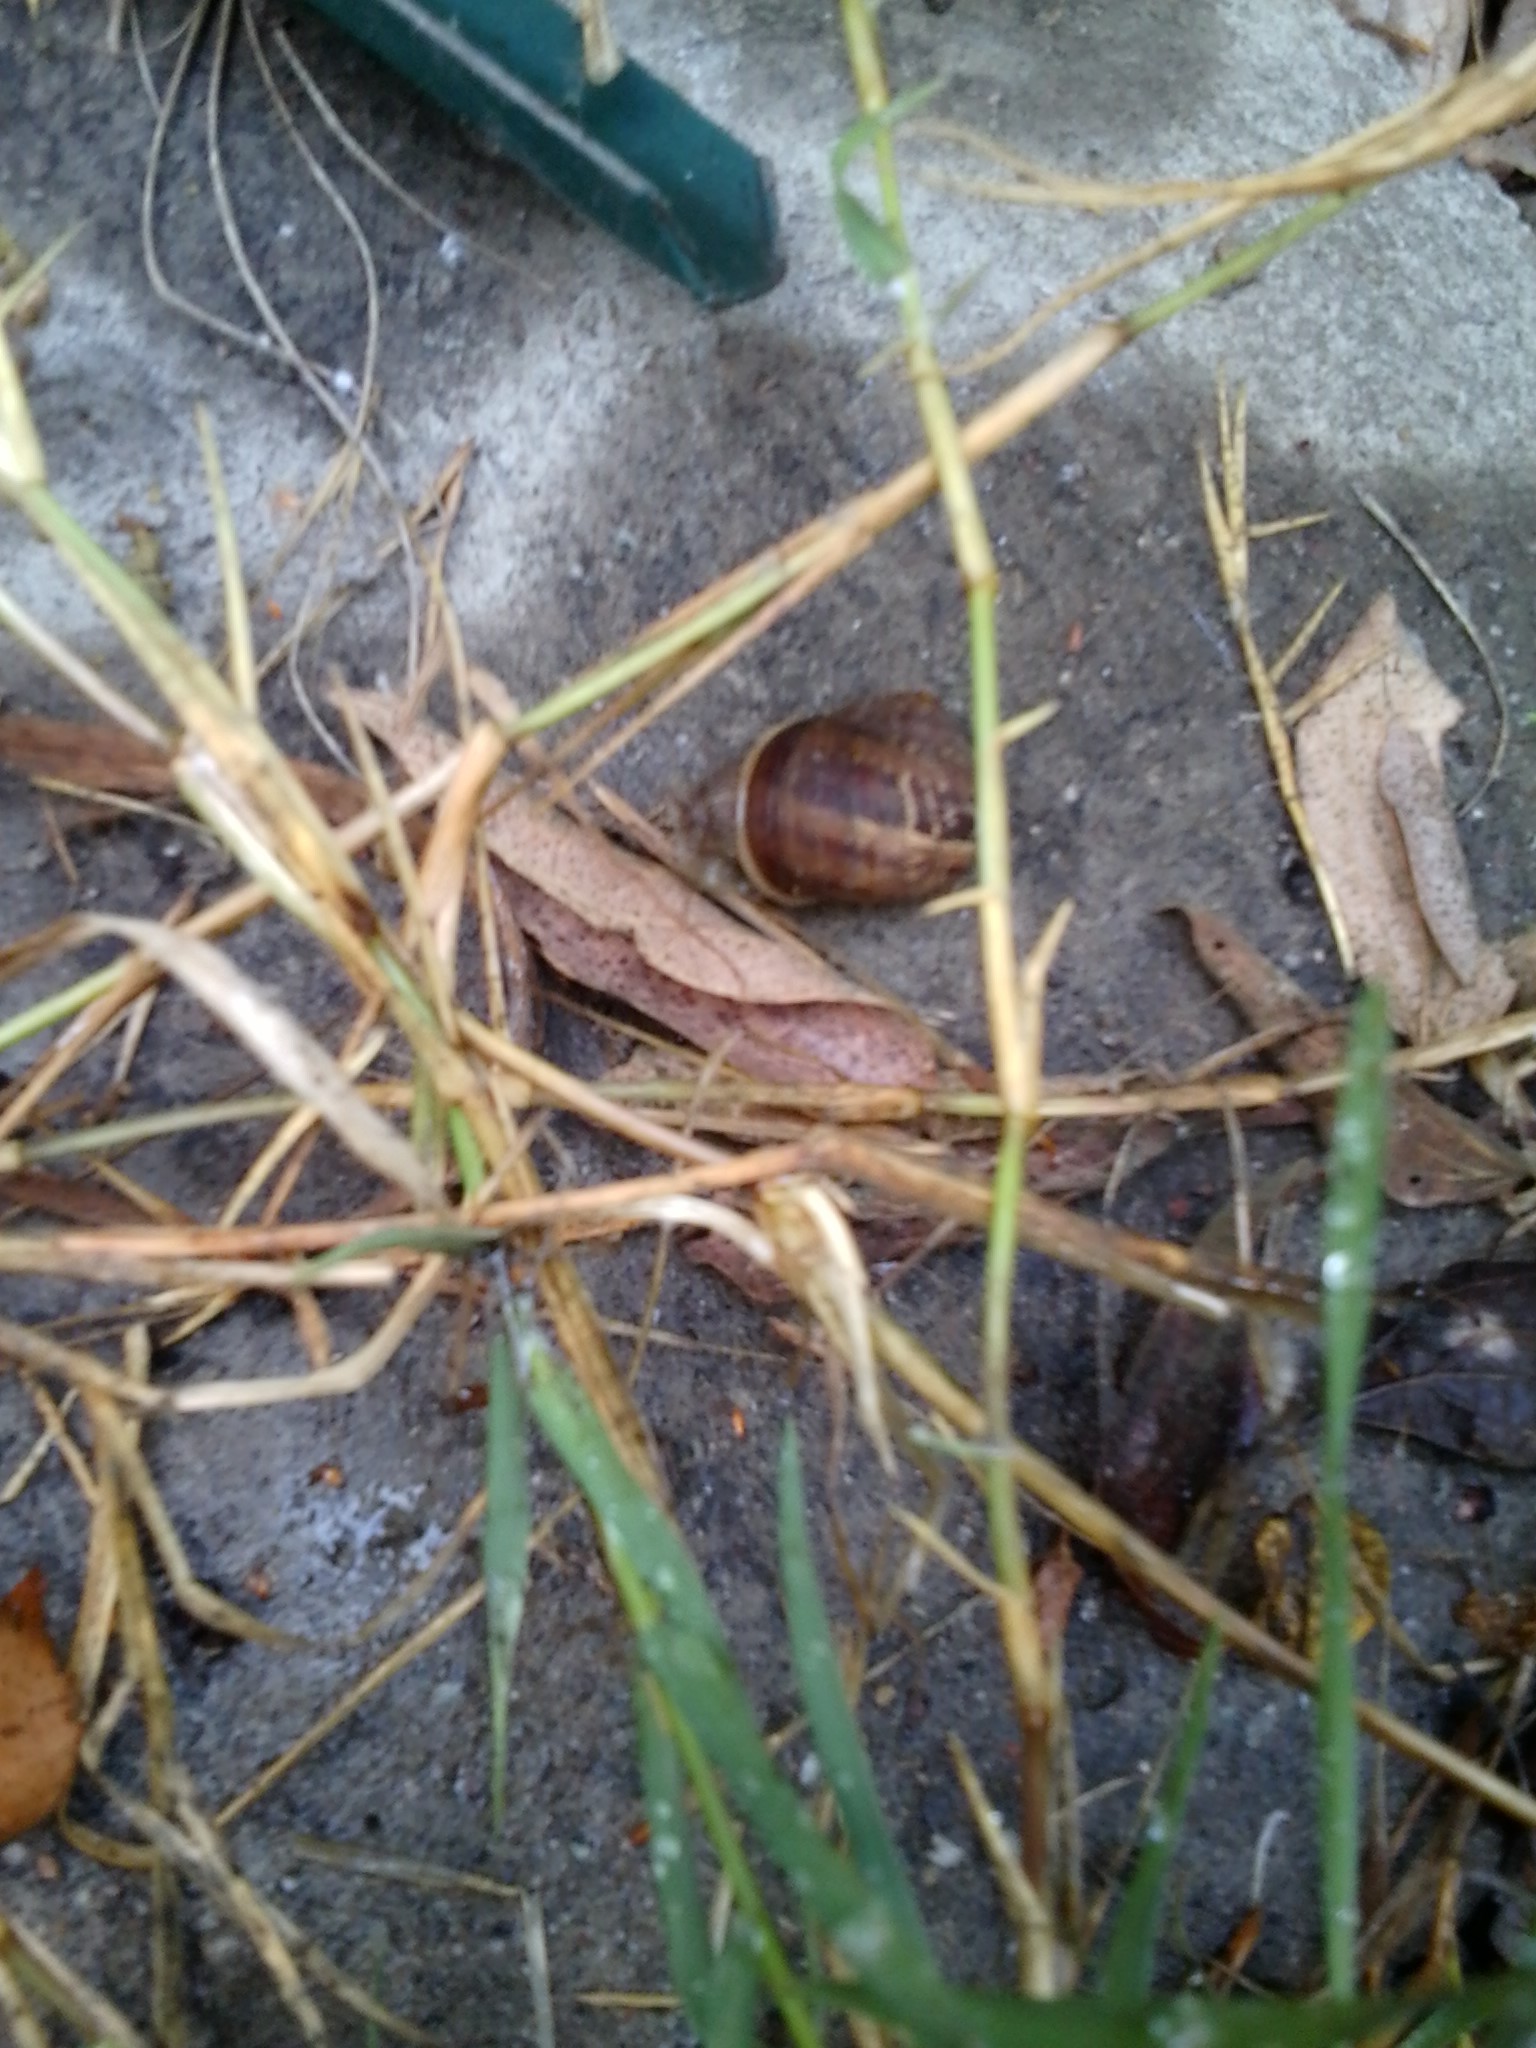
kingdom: Animalia
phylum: Mollusca
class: Gastropoda
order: Stylommatophora
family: Helicidae
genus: Cornu
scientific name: Cornu aspersum
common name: Brown garden snail
